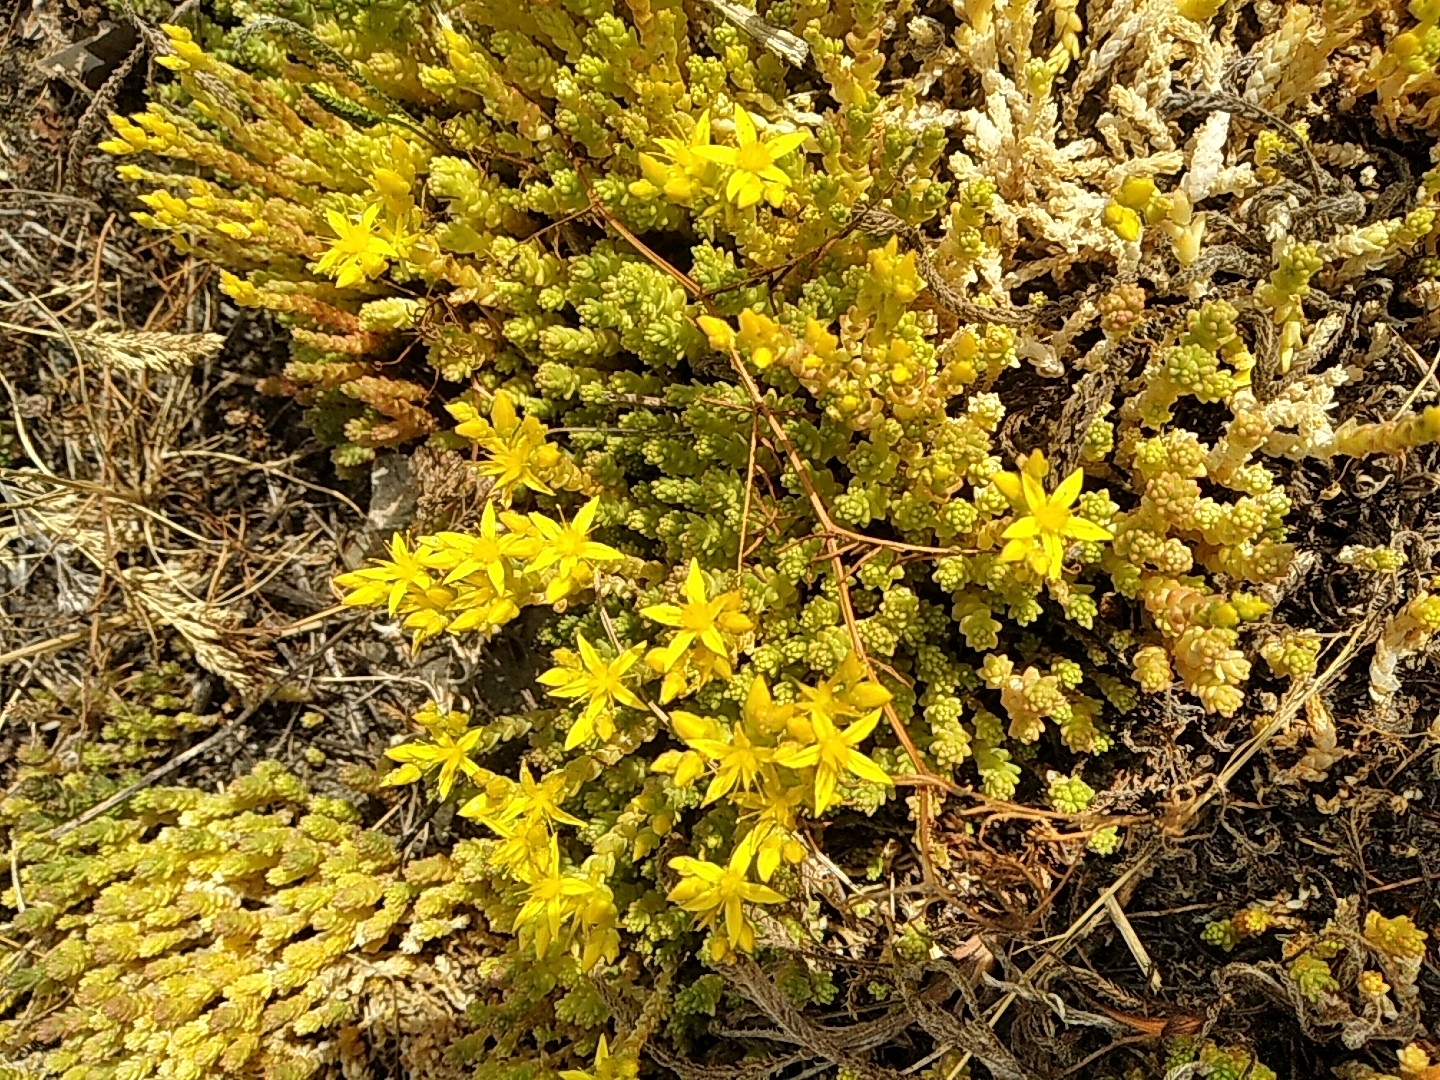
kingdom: Plantae
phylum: Tracheophyta
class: Magnoliopsida
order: Saxifragales
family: Crassulaceae
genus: Sedum
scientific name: Sedum acre
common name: Biting stonecrop
